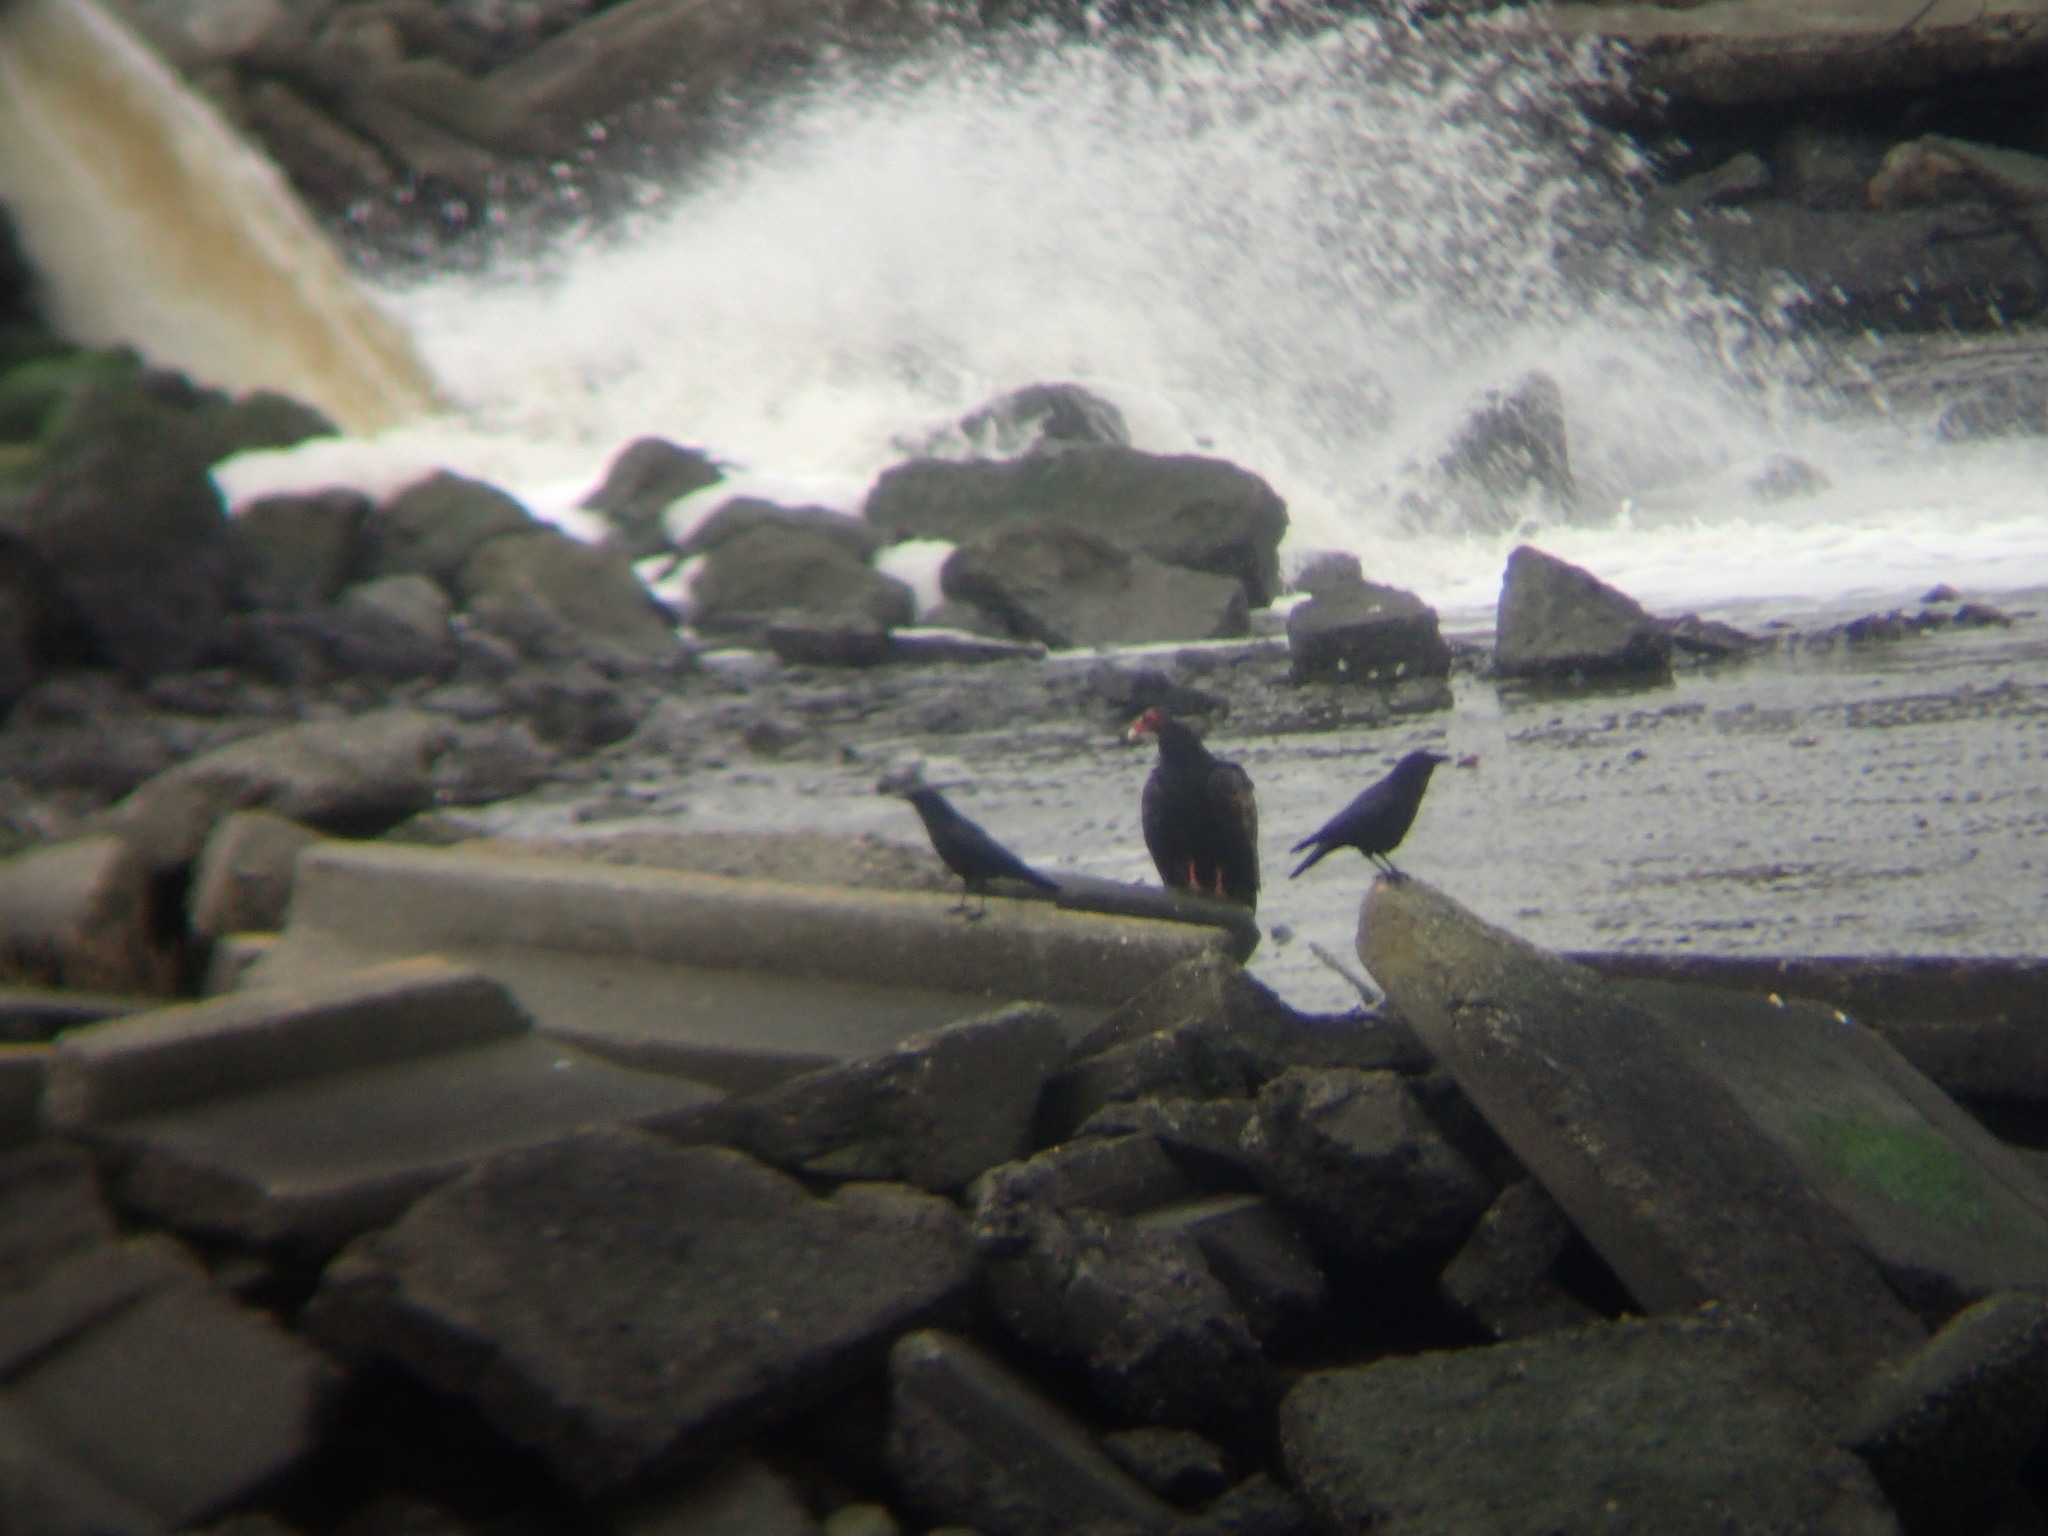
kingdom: Animalia
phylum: Chordata
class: Aves
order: Accipitriformes
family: Cathartidae
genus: Cathartes
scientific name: Cathartes aura
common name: Turkey vulture
